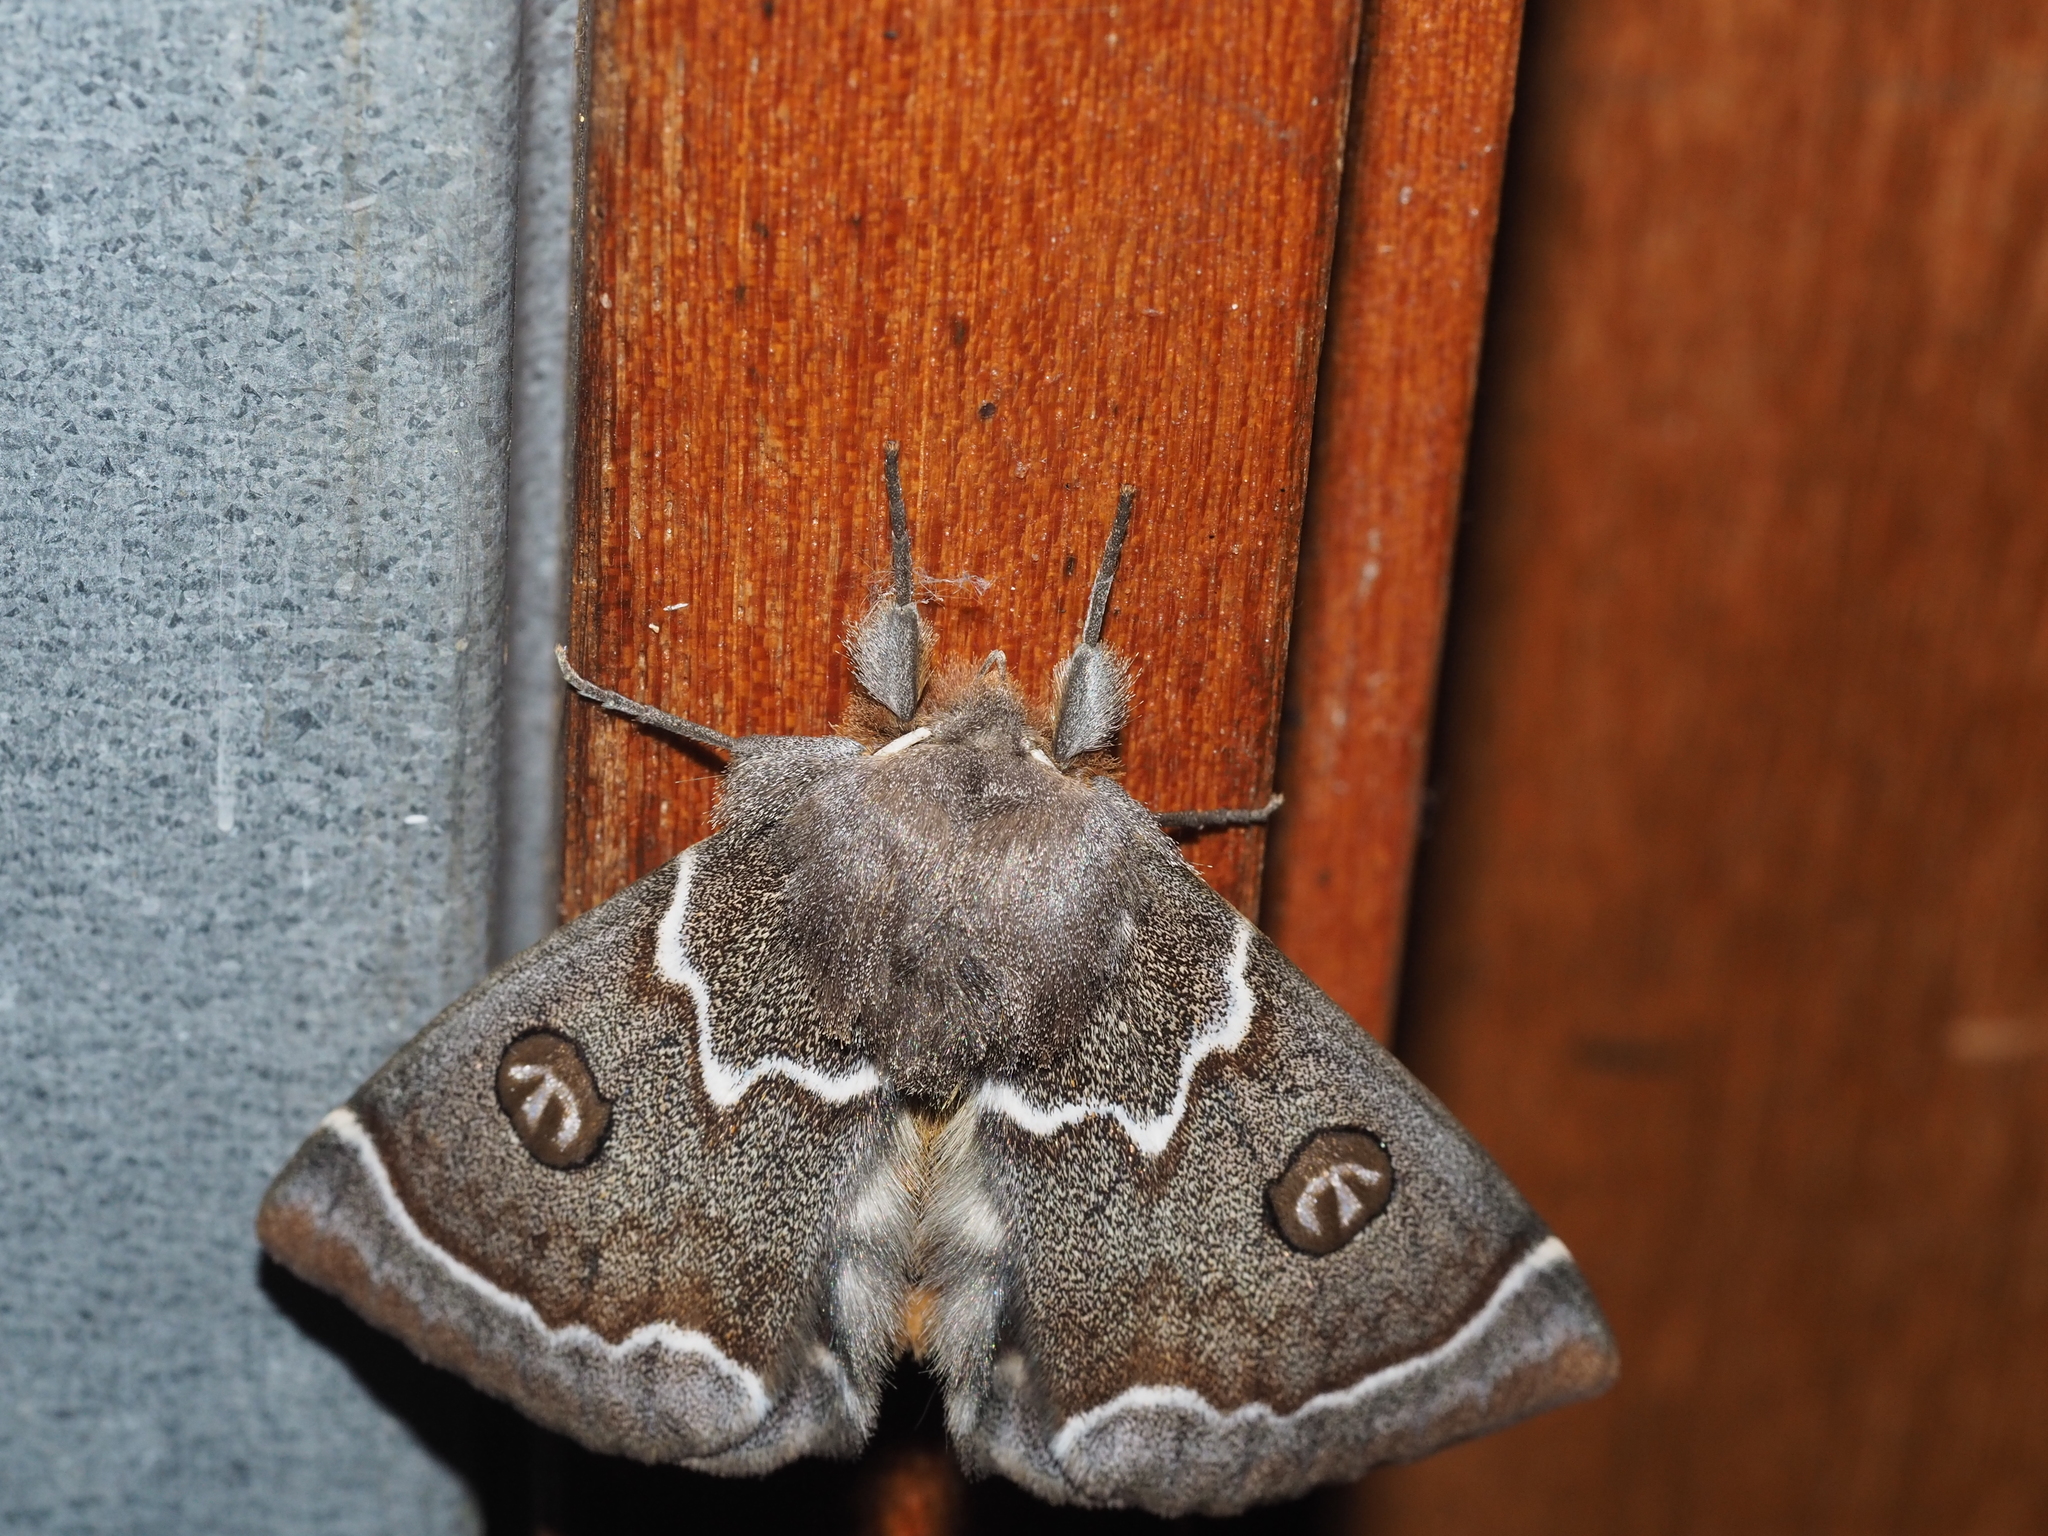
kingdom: Animalia
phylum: Arthropoda
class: Insecta
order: Lepidoptera
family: Carthaeidae
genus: Carthaea
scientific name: Carthaea saturnioides
